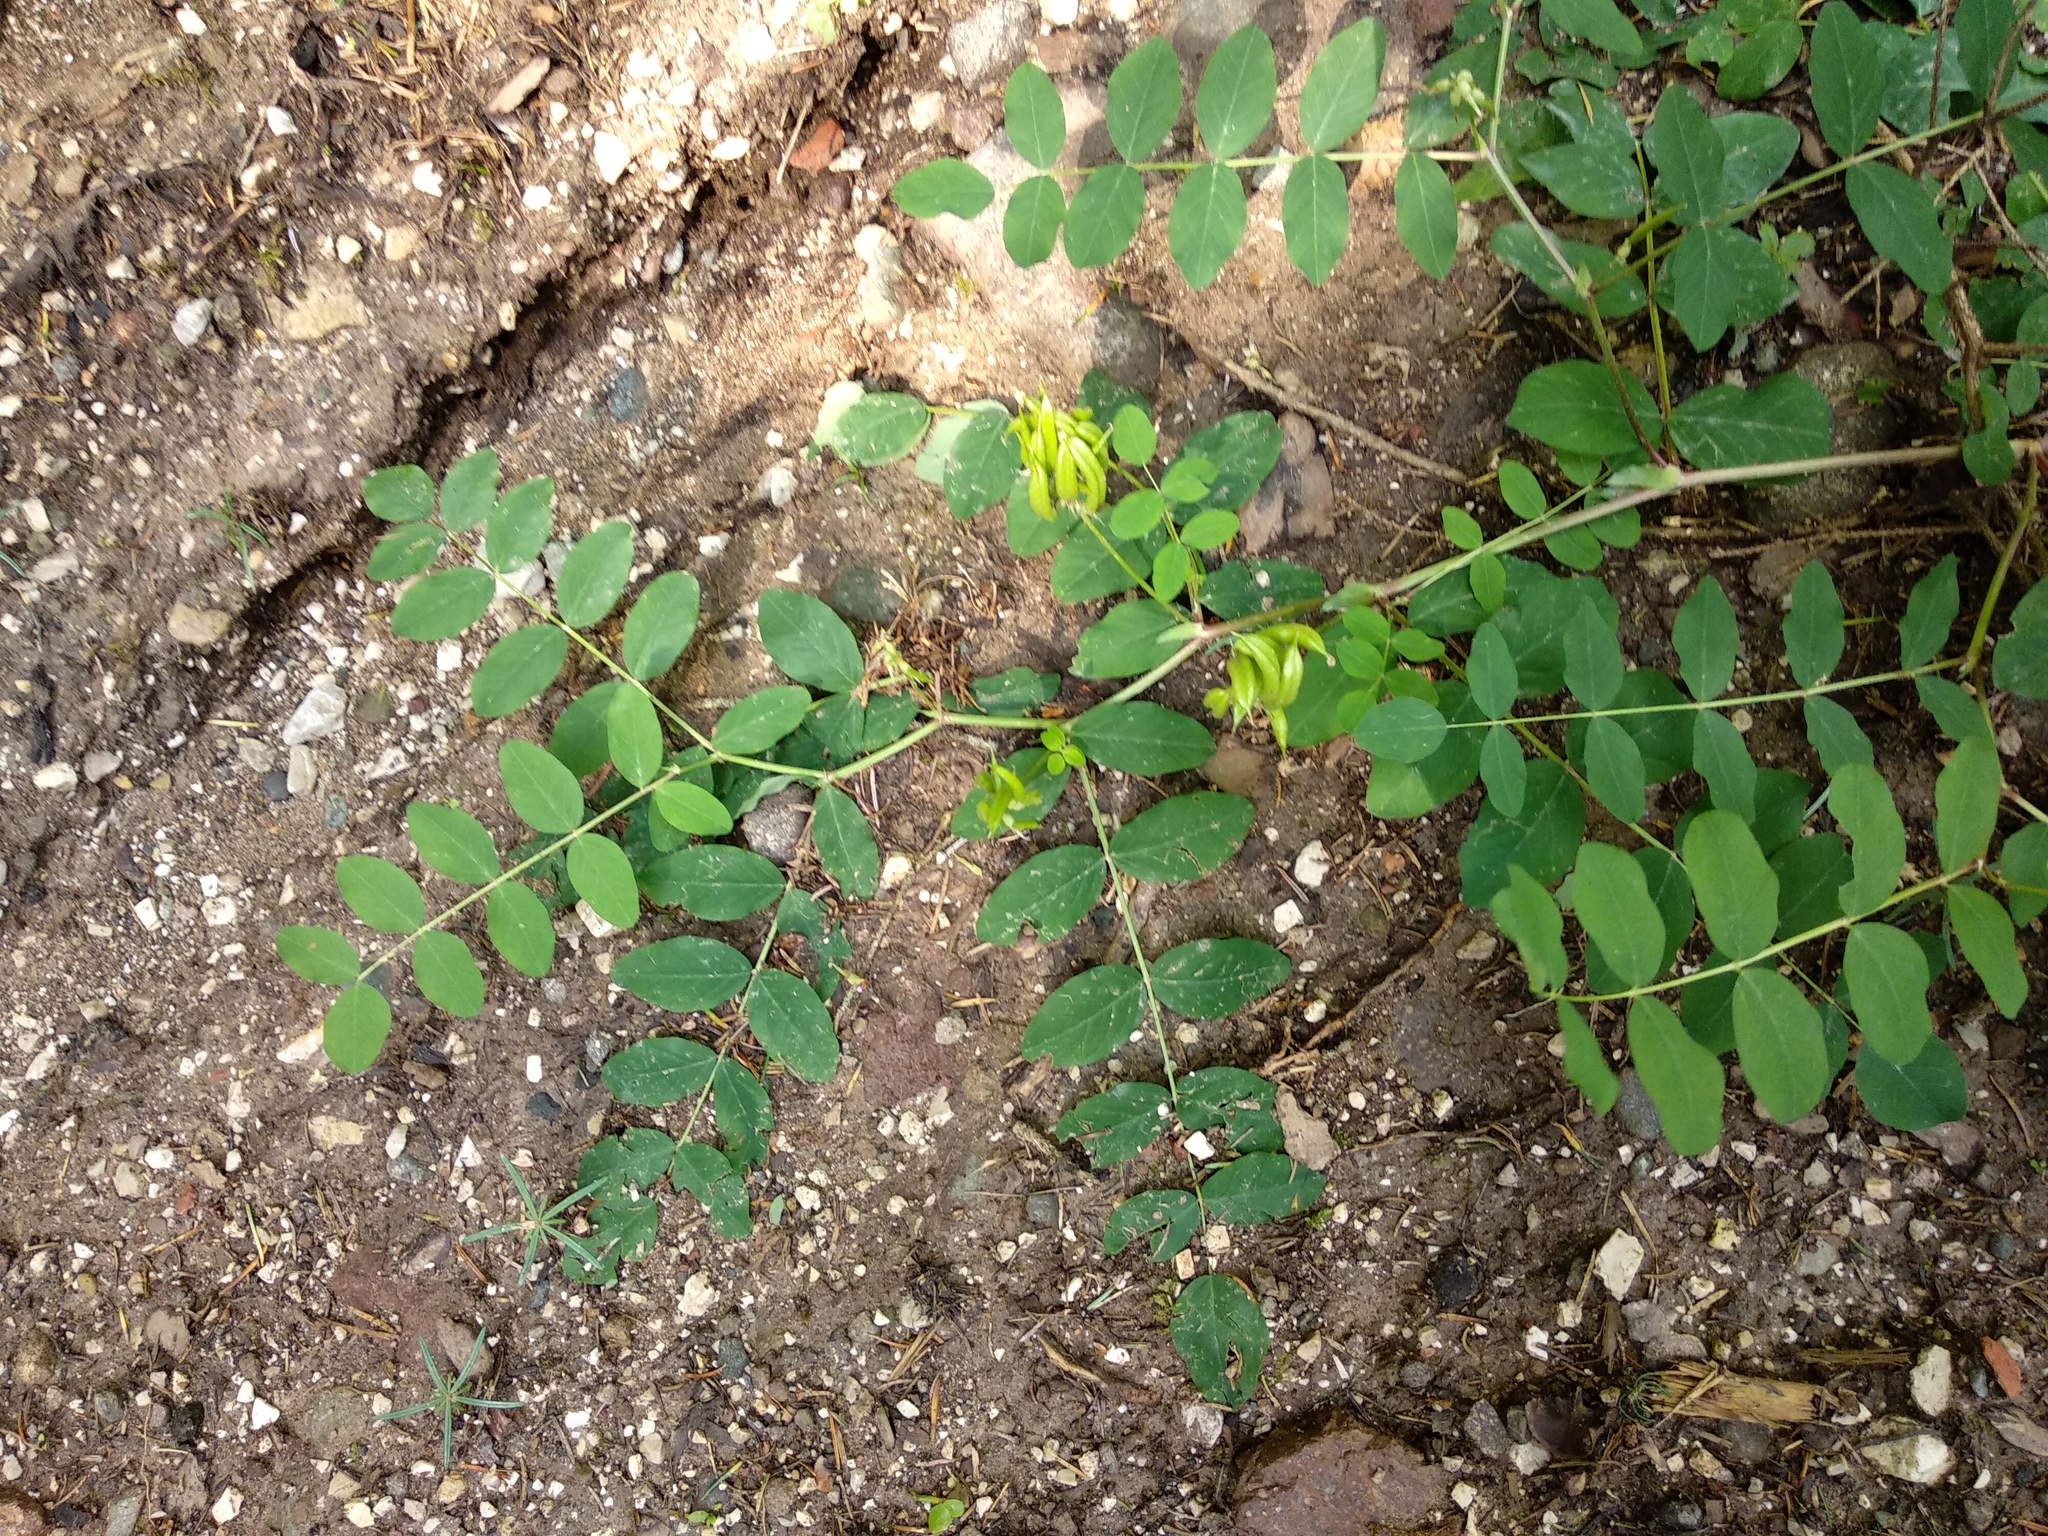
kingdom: Plantae
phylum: Tracheophyta
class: Magnoliopsida
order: Fabales
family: Fabaceae
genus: Astragalus
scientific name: Astragalus glycyphyllos
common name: Wild liquorice
